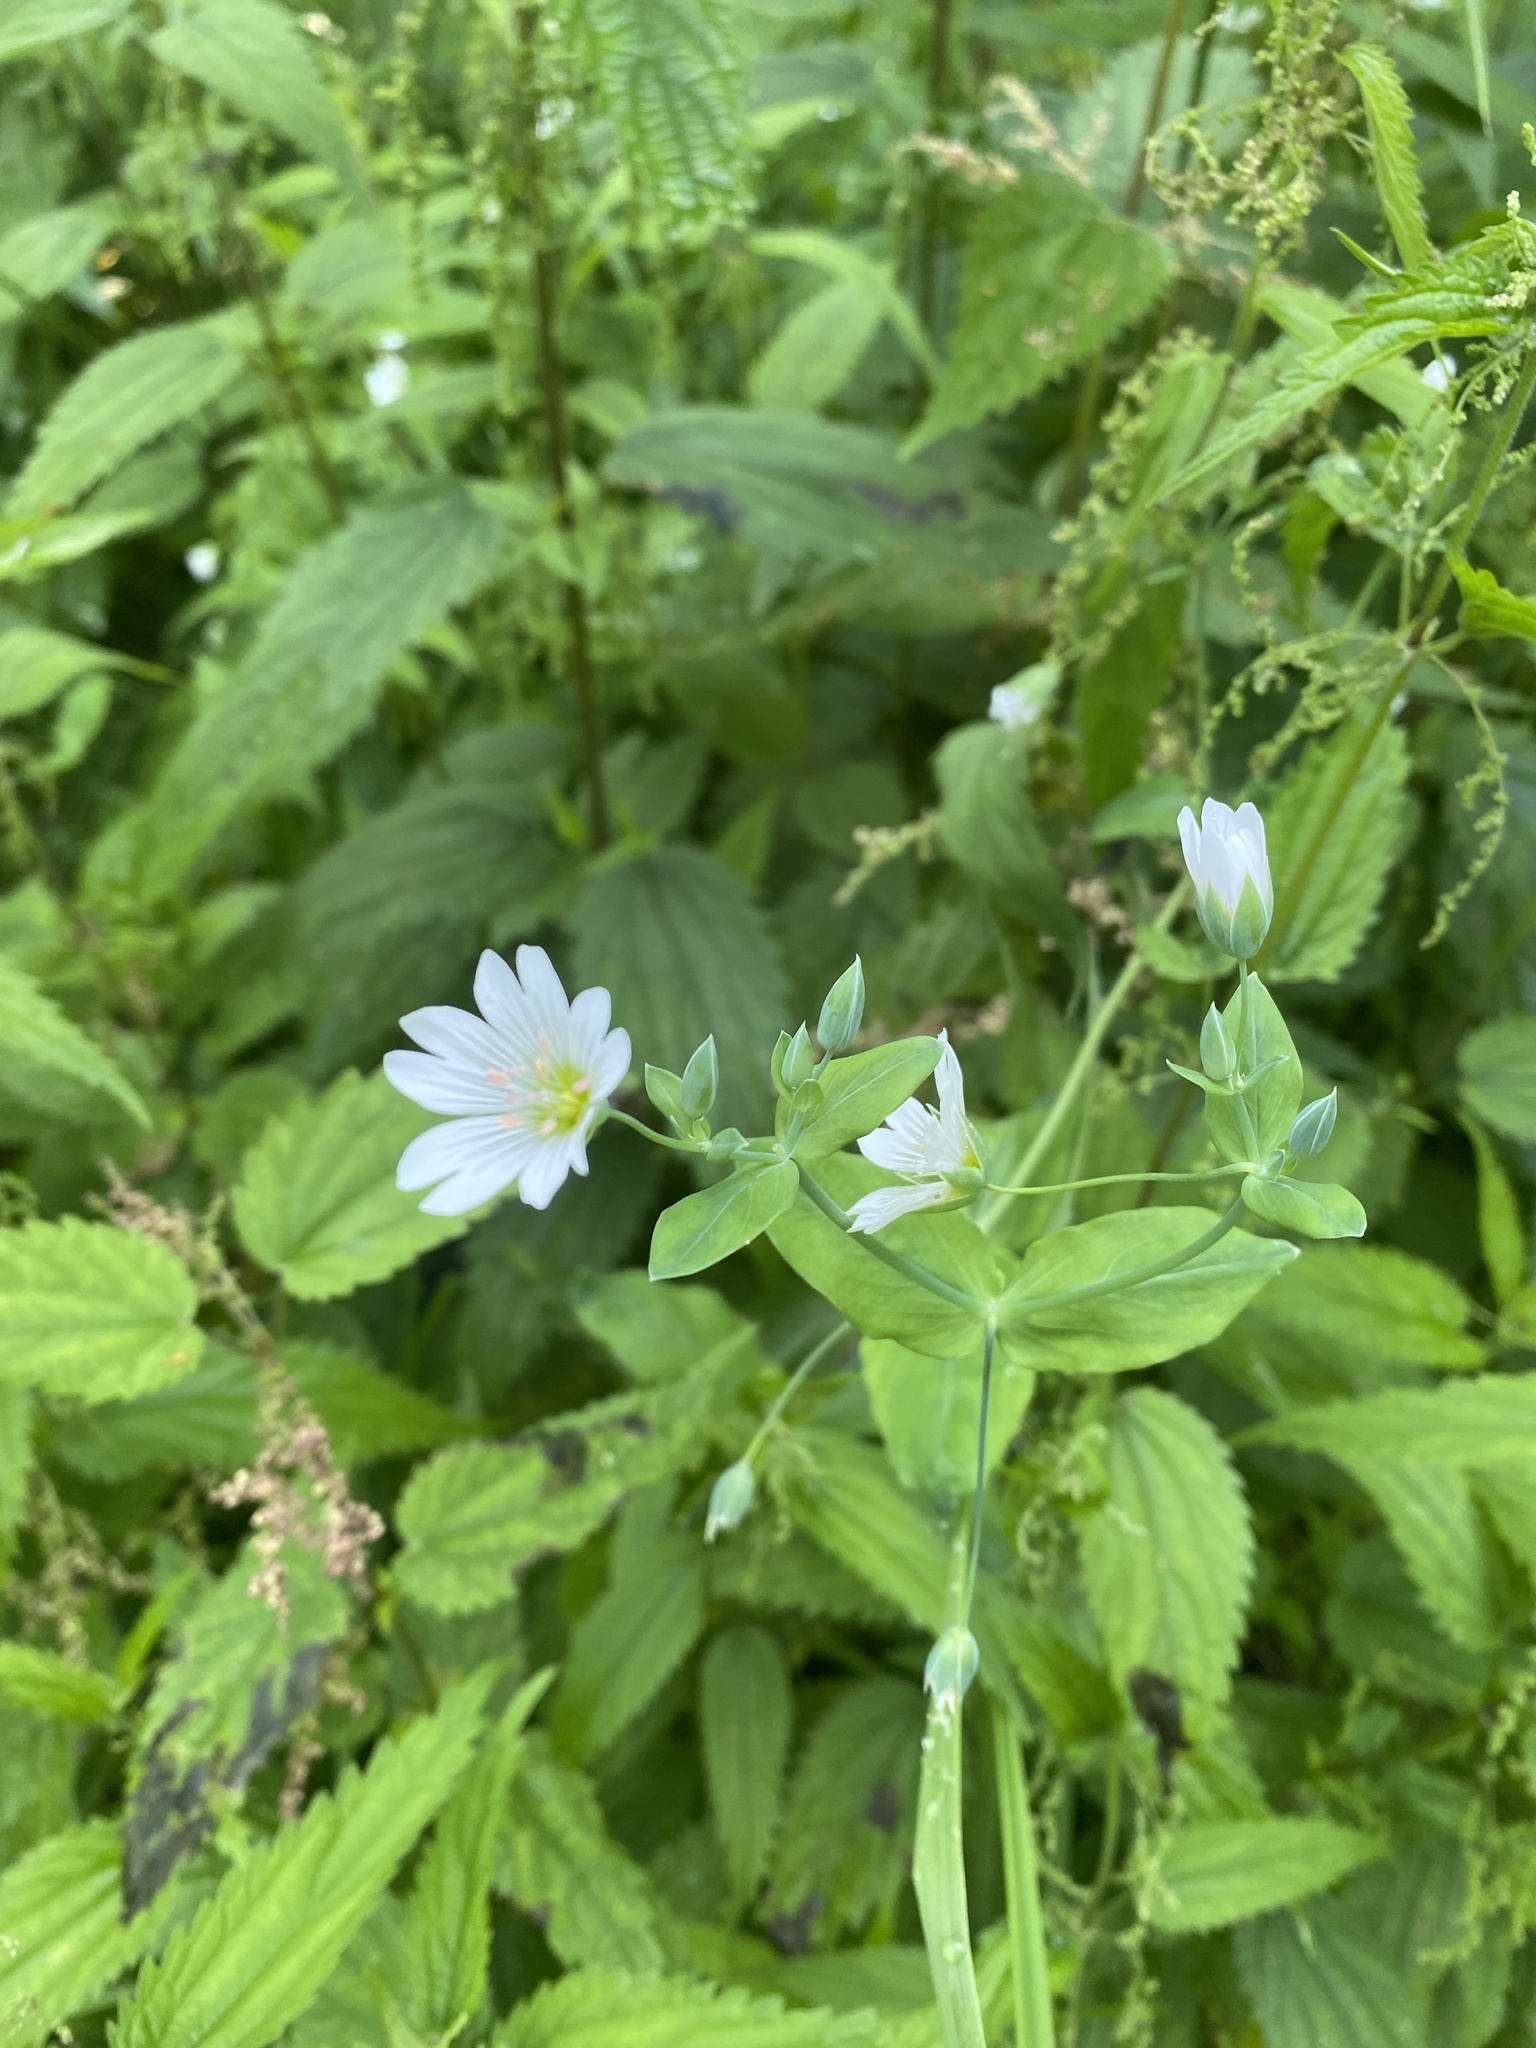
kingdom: Plantae
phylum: Tracheophyta
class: Magnoliopsida
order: Caryophyllales
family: Caryophyllaceae
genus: Cerastium
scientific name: Cerastium davuricum
